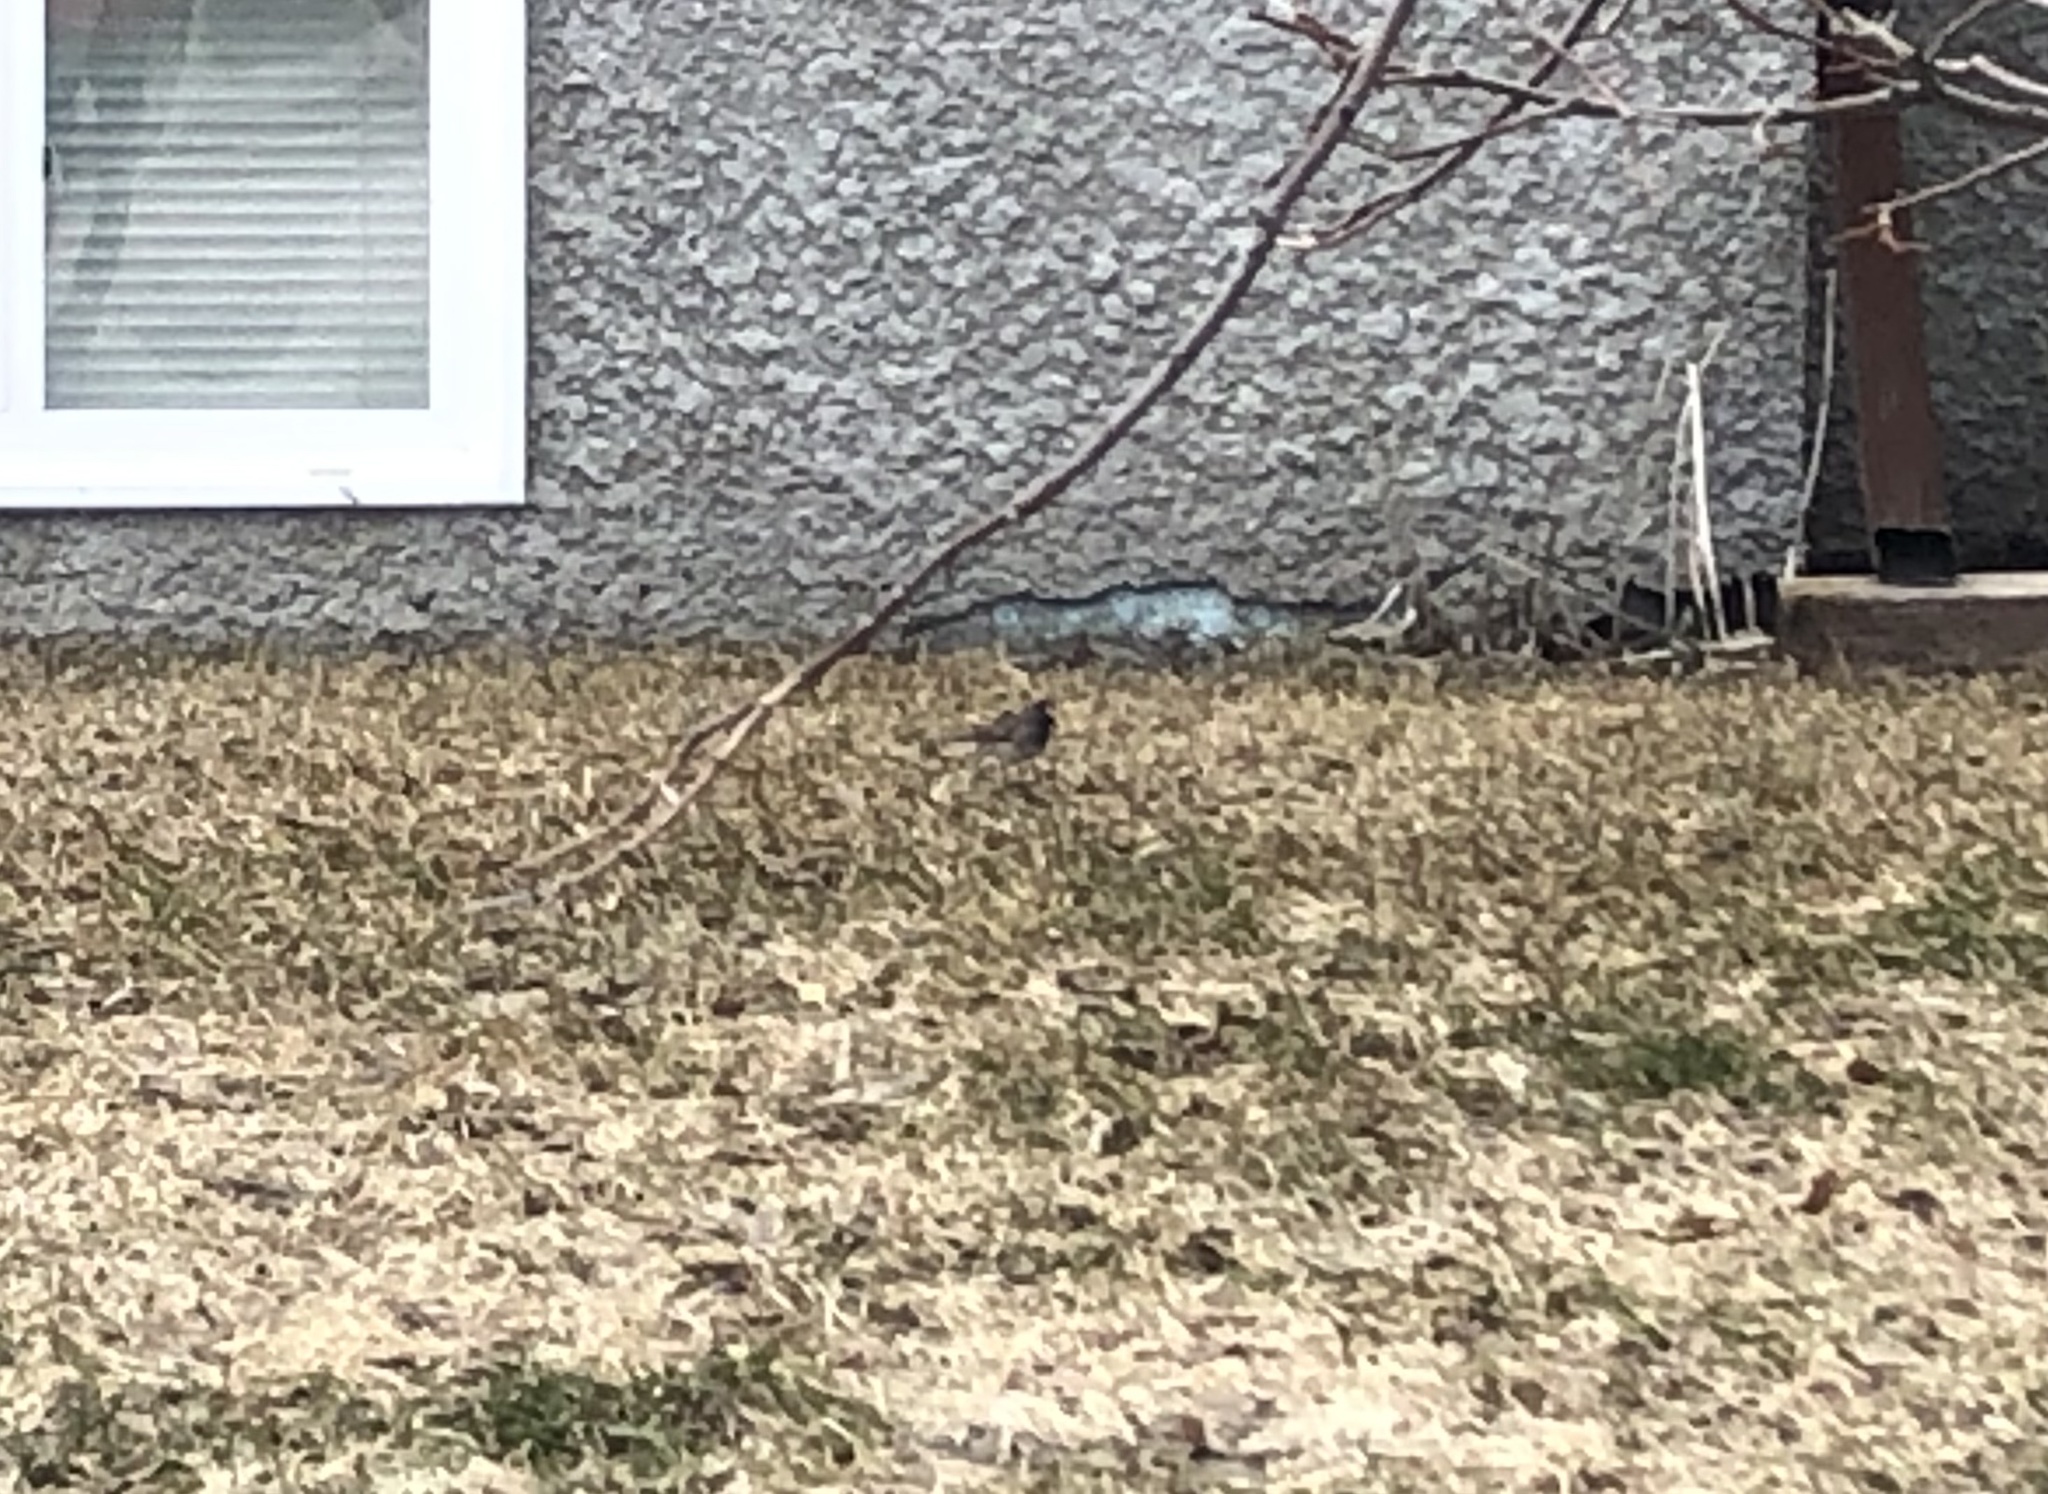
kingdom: Animalia
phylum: Chordata
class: Aves
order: Passeriformes
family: Passerellidae
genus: Junco
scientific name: Junco hyemalis
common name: Dark-eyed junco
